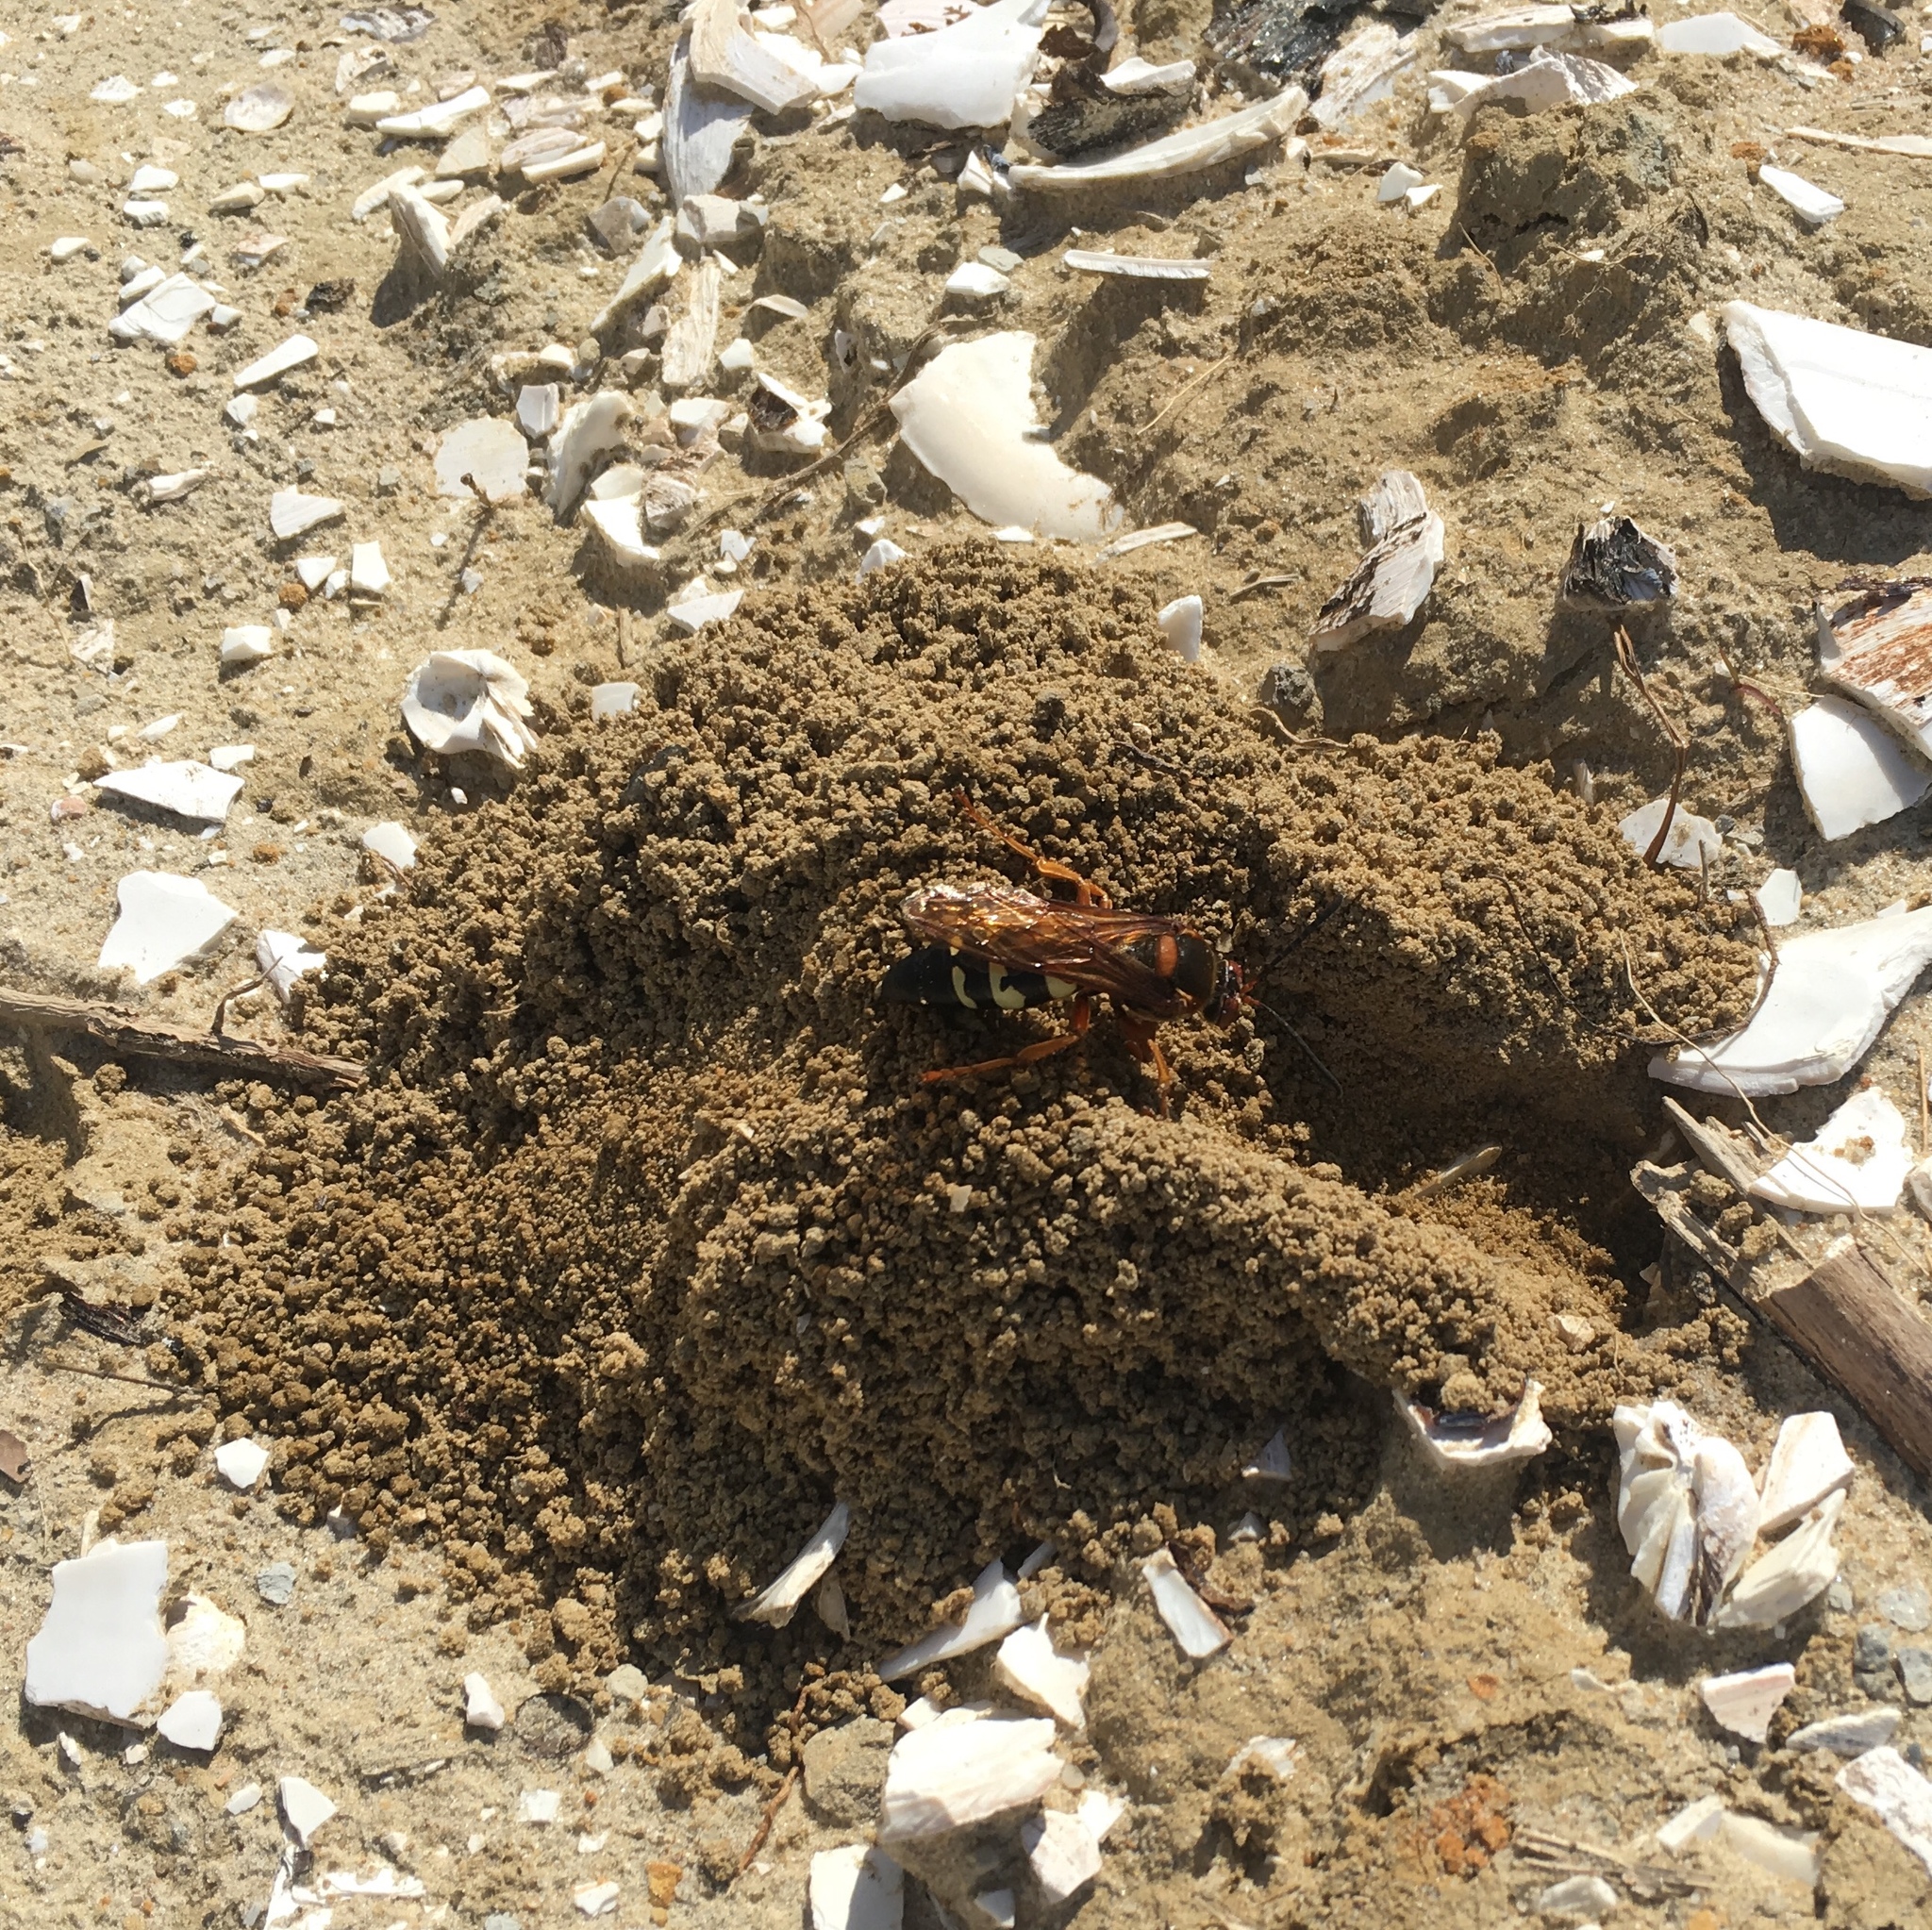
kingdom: Animalia
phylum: Arthropoda
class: Insecta
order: Hymenoptera
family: Crabronidae
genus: Sphecius
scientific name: Sphecius speciosus
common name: Cicada killer
